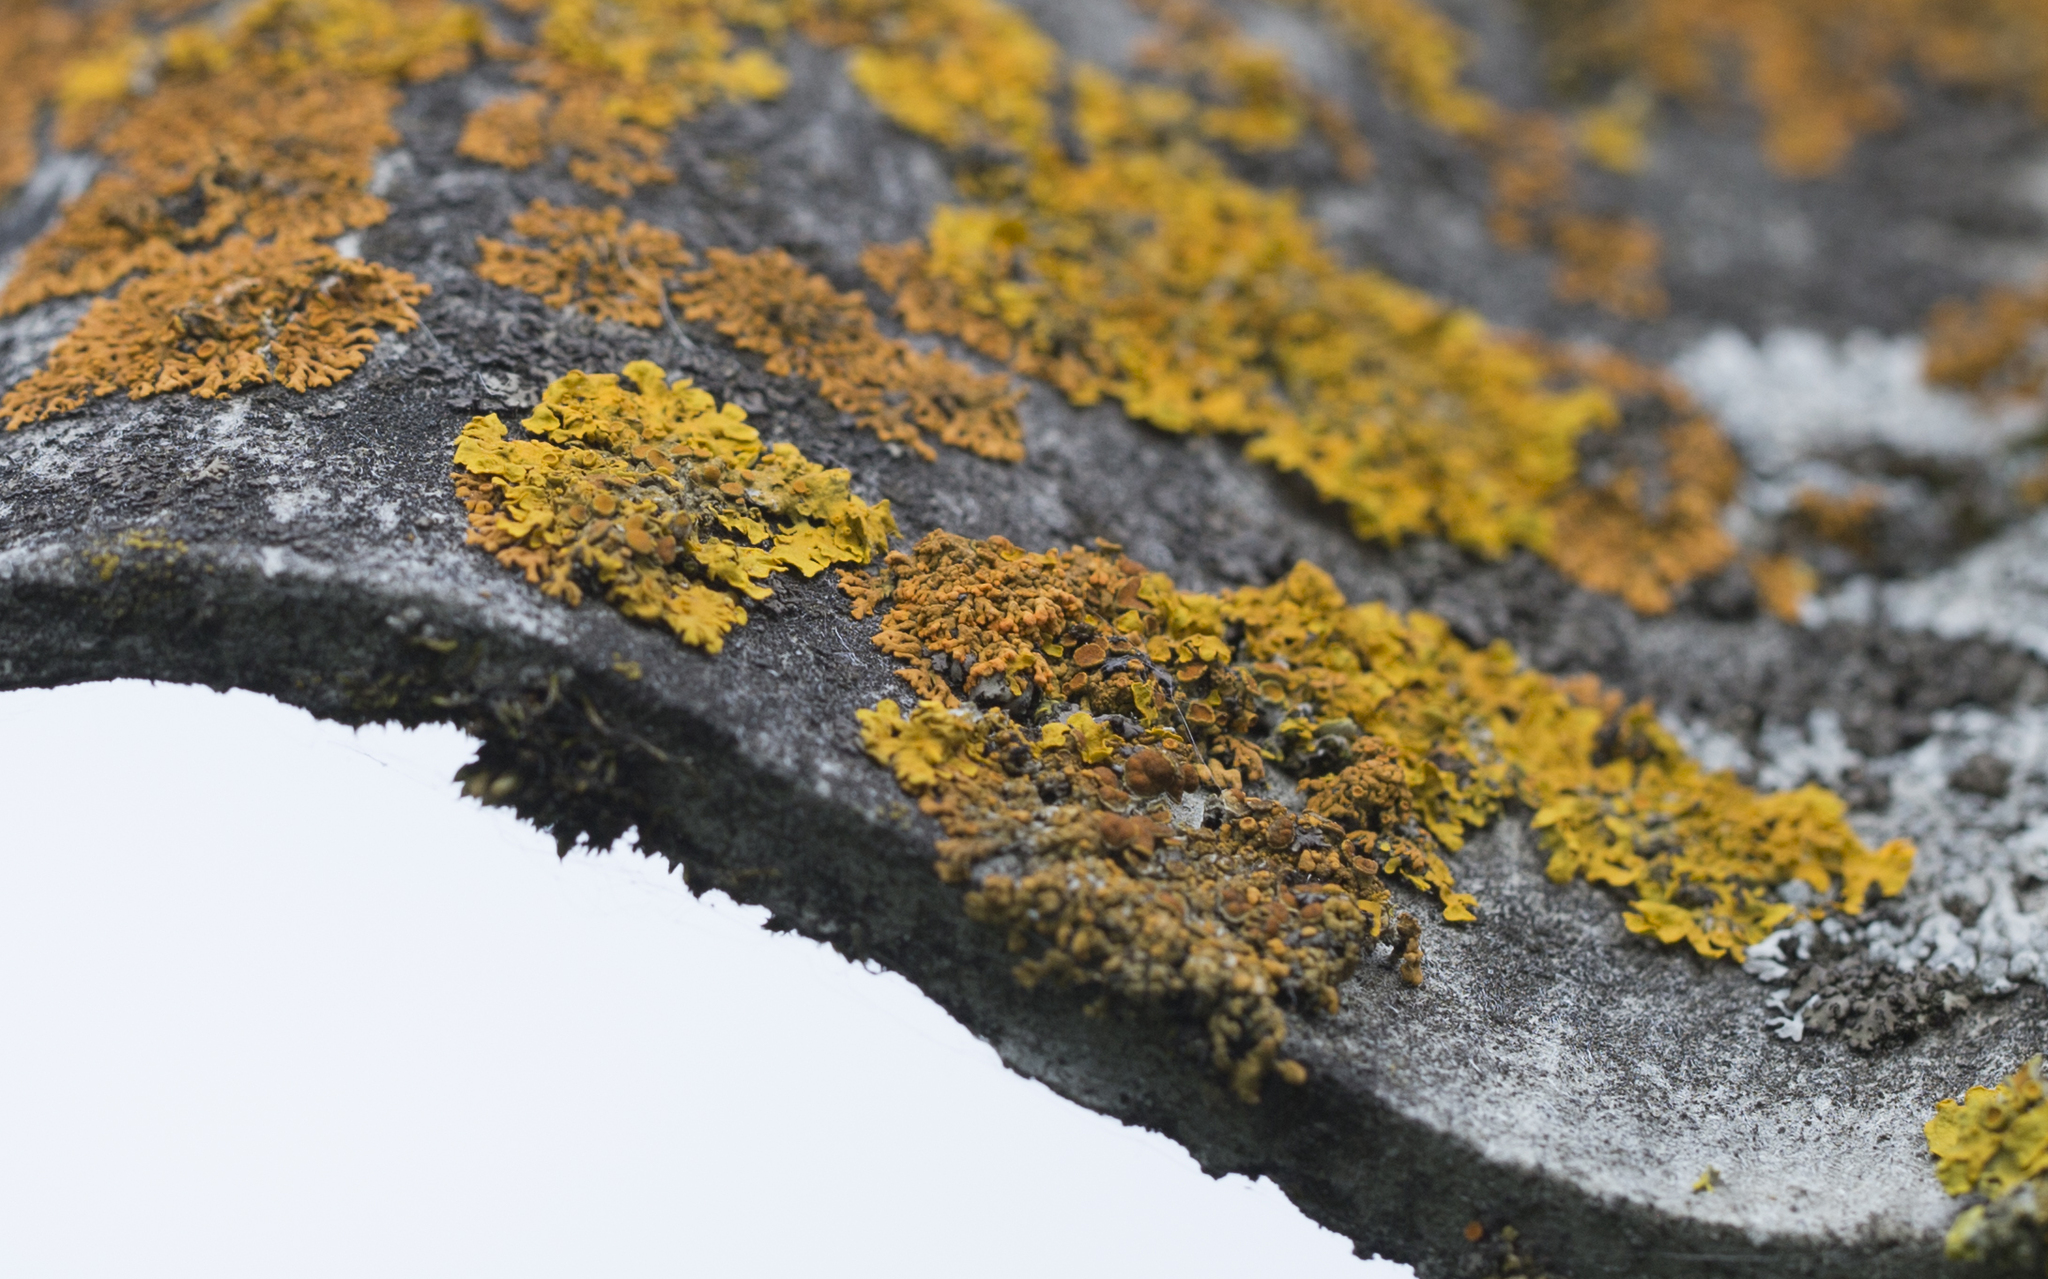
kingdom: Fungi
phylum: Ascomycota
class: Lecanoromycetes
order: Teloschistales
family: Teloschistaceae
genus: Xanthoria
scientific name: Xanthoria parietina
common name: Common orange lichen
